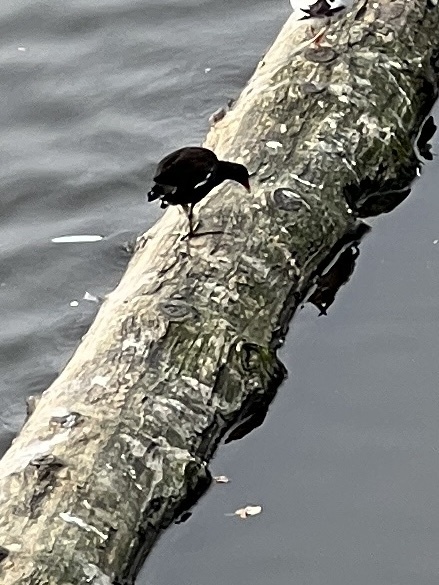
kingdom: Animalia
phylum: Chordata
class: Aves
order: Gruiformes
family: Rallidae
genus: Gallinula
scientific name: Gallinula chloropus
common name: Common moorhen
